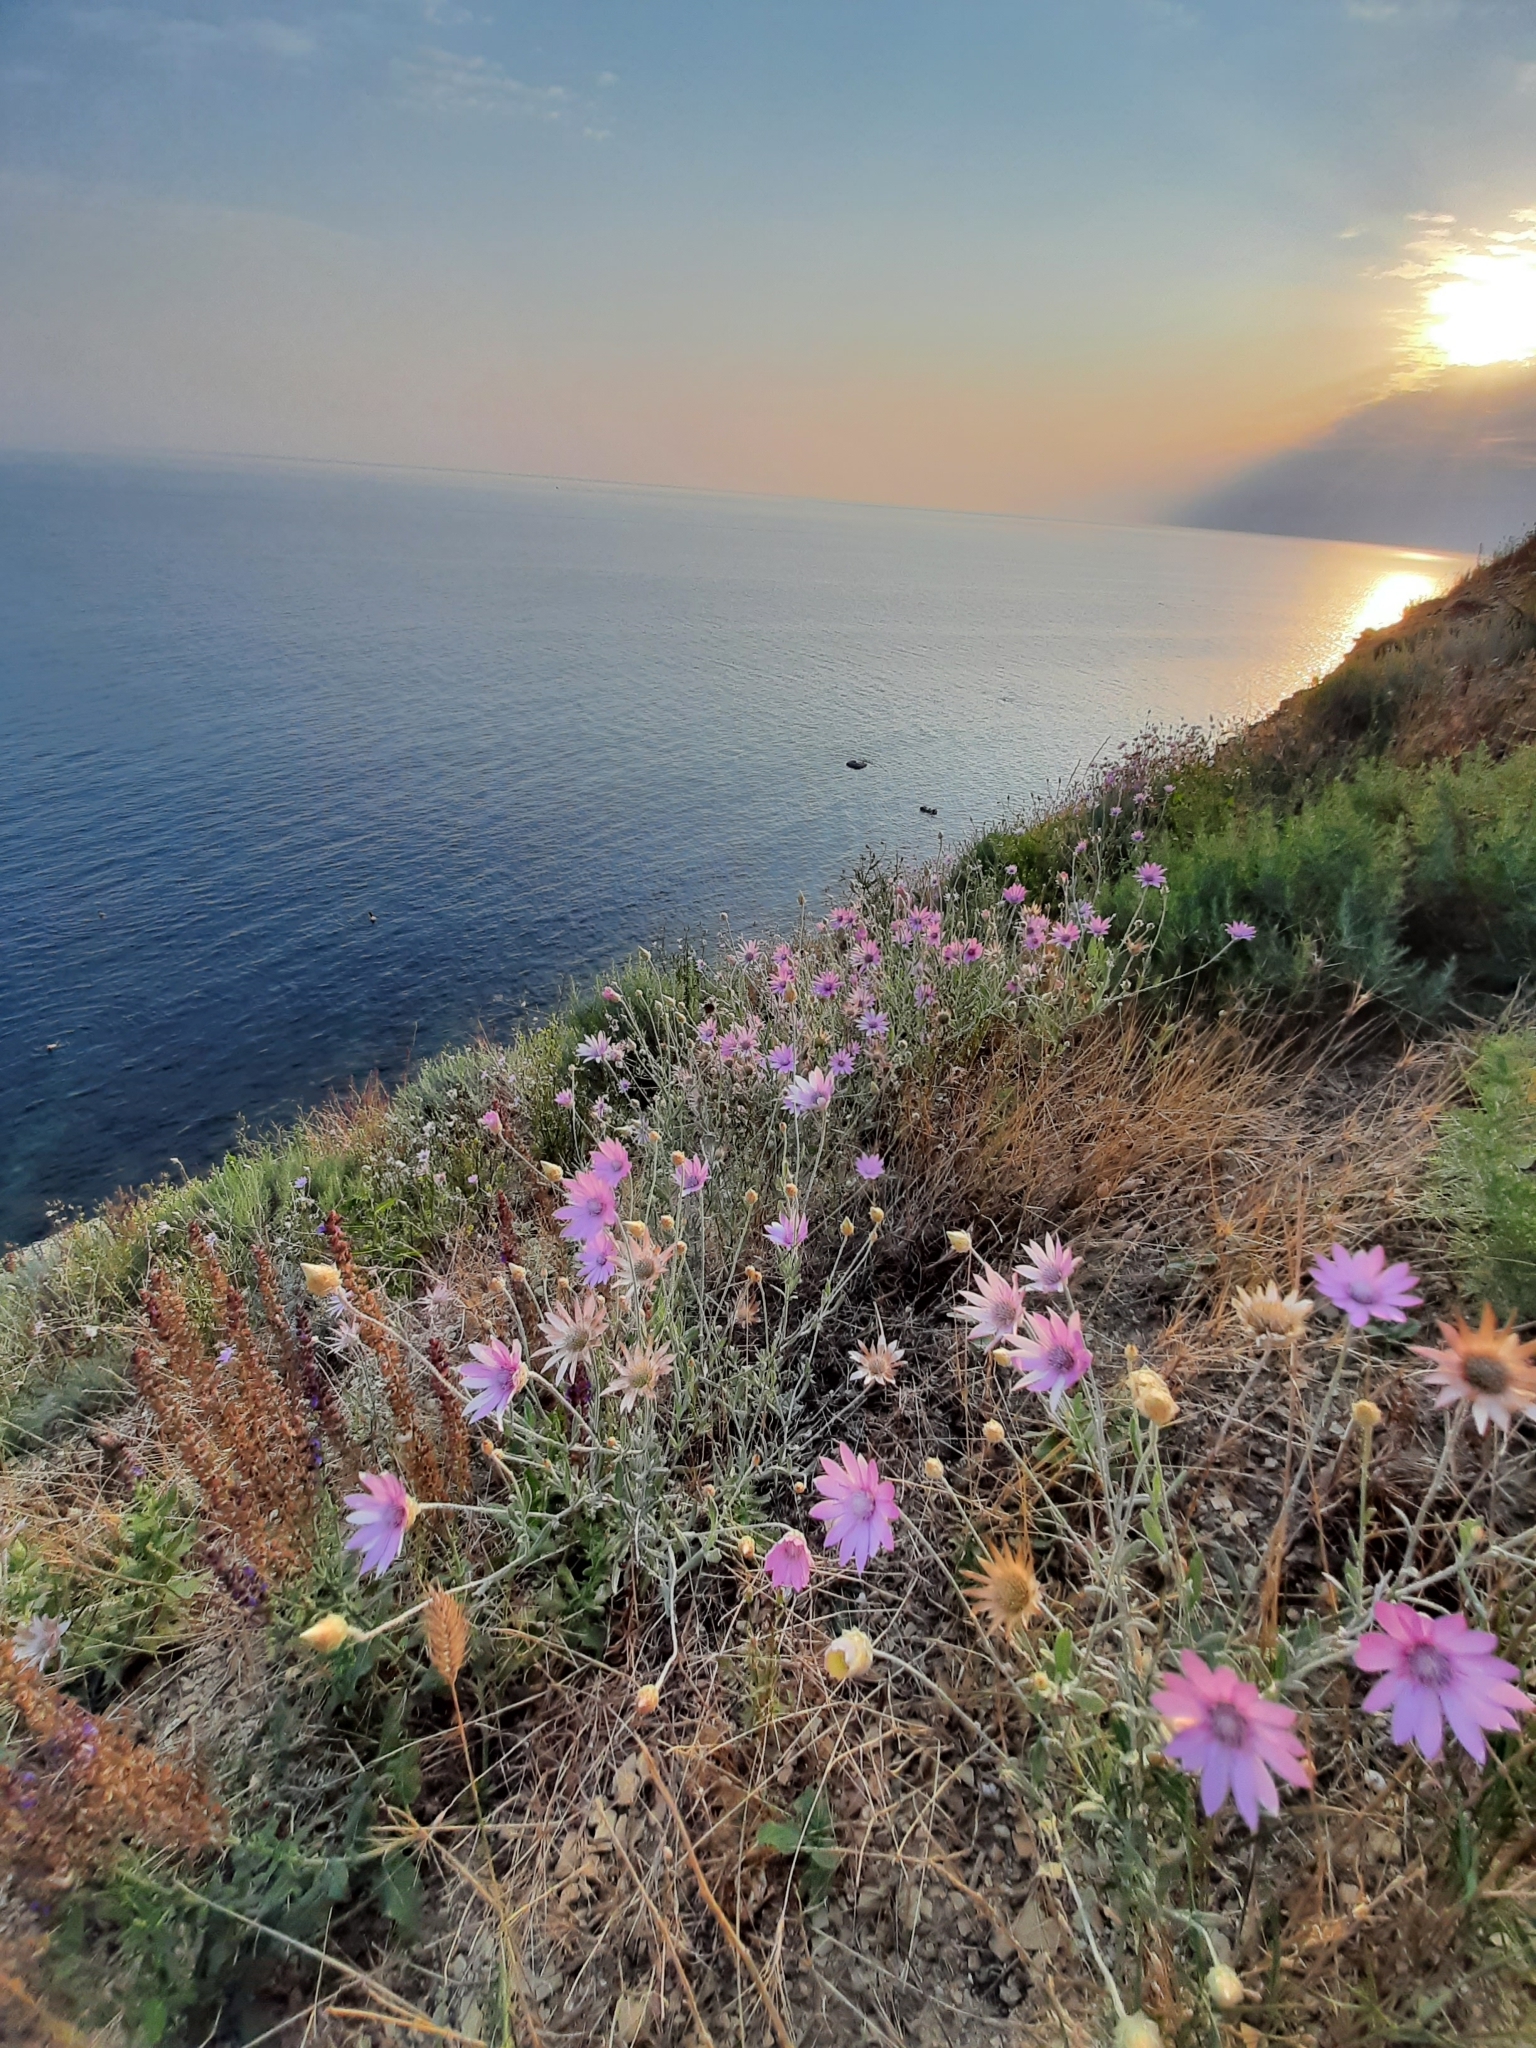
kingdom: Plantae
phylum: Tracheophyta
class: Magnoliopsida
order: Asterales
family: Asteraceae
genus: Xeranthemum
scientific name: Xeranthemum annuum
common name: Immortelle
